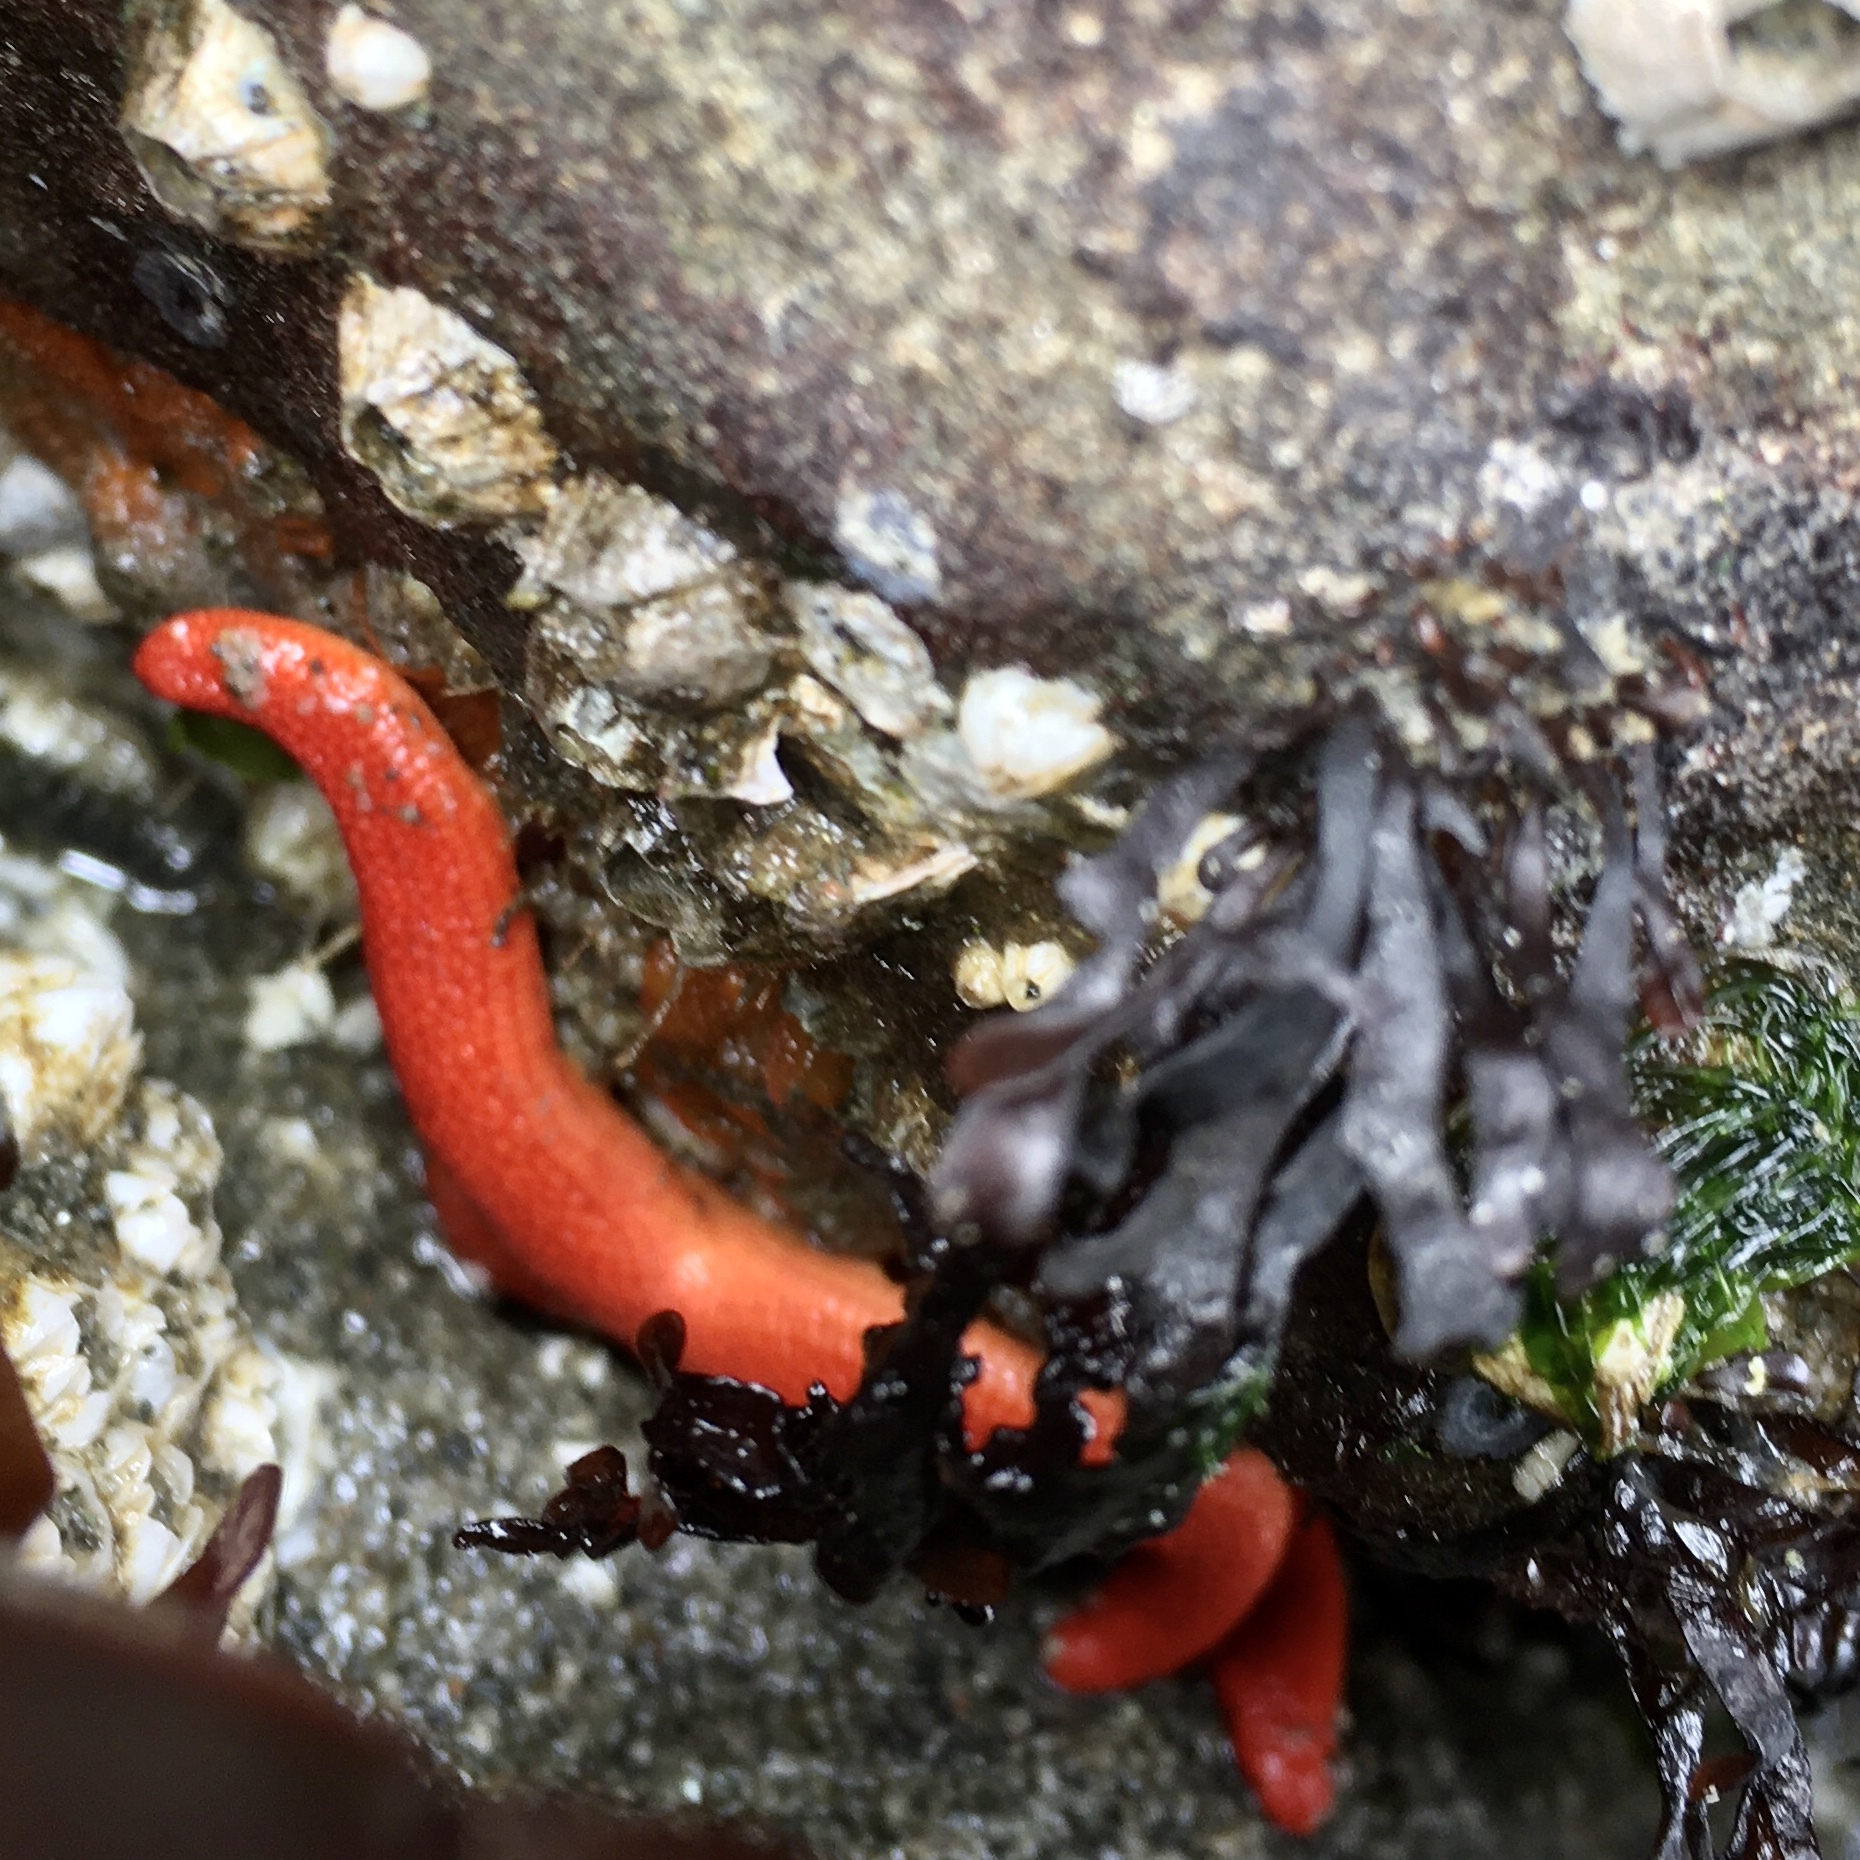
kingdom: Animalia
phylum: Echinodermata
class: Asteroidea
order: Spinulosida
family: Echinasteridae
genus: Henricia
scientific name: Henricia leviuscula
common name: Pacific blood star
